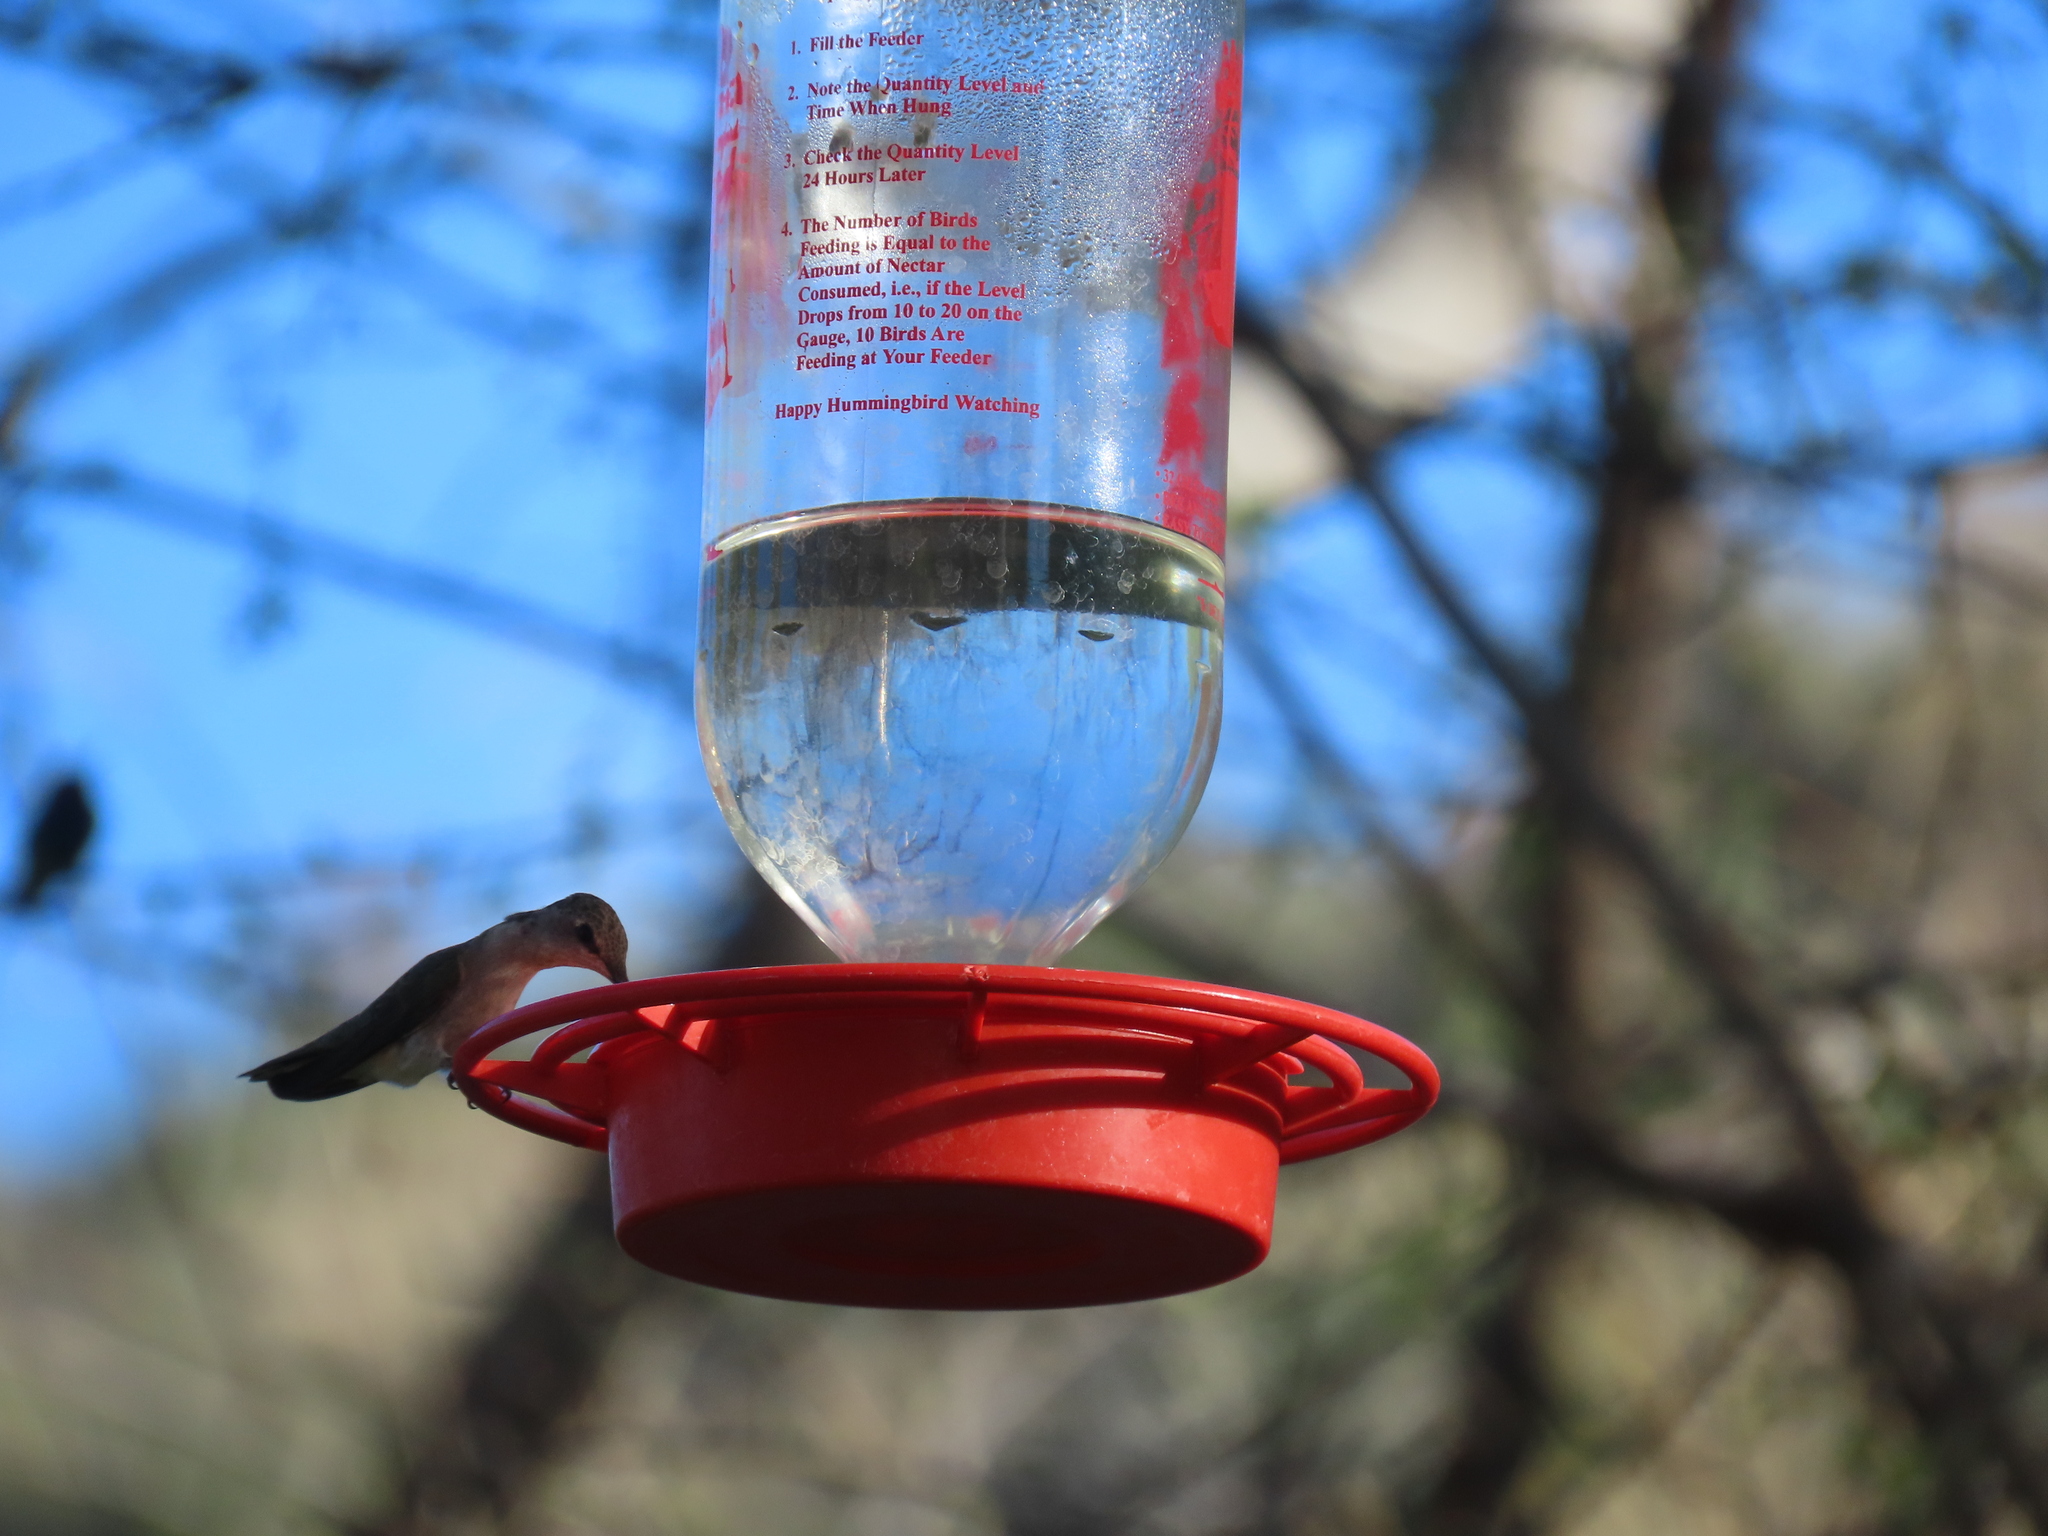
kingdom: Animalia
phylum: Chordata
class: Aves
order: Apodiformes
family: Trochilidae
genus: Archilochus
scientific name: Archilochus alexandri
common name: Black-chinned hummingbird
